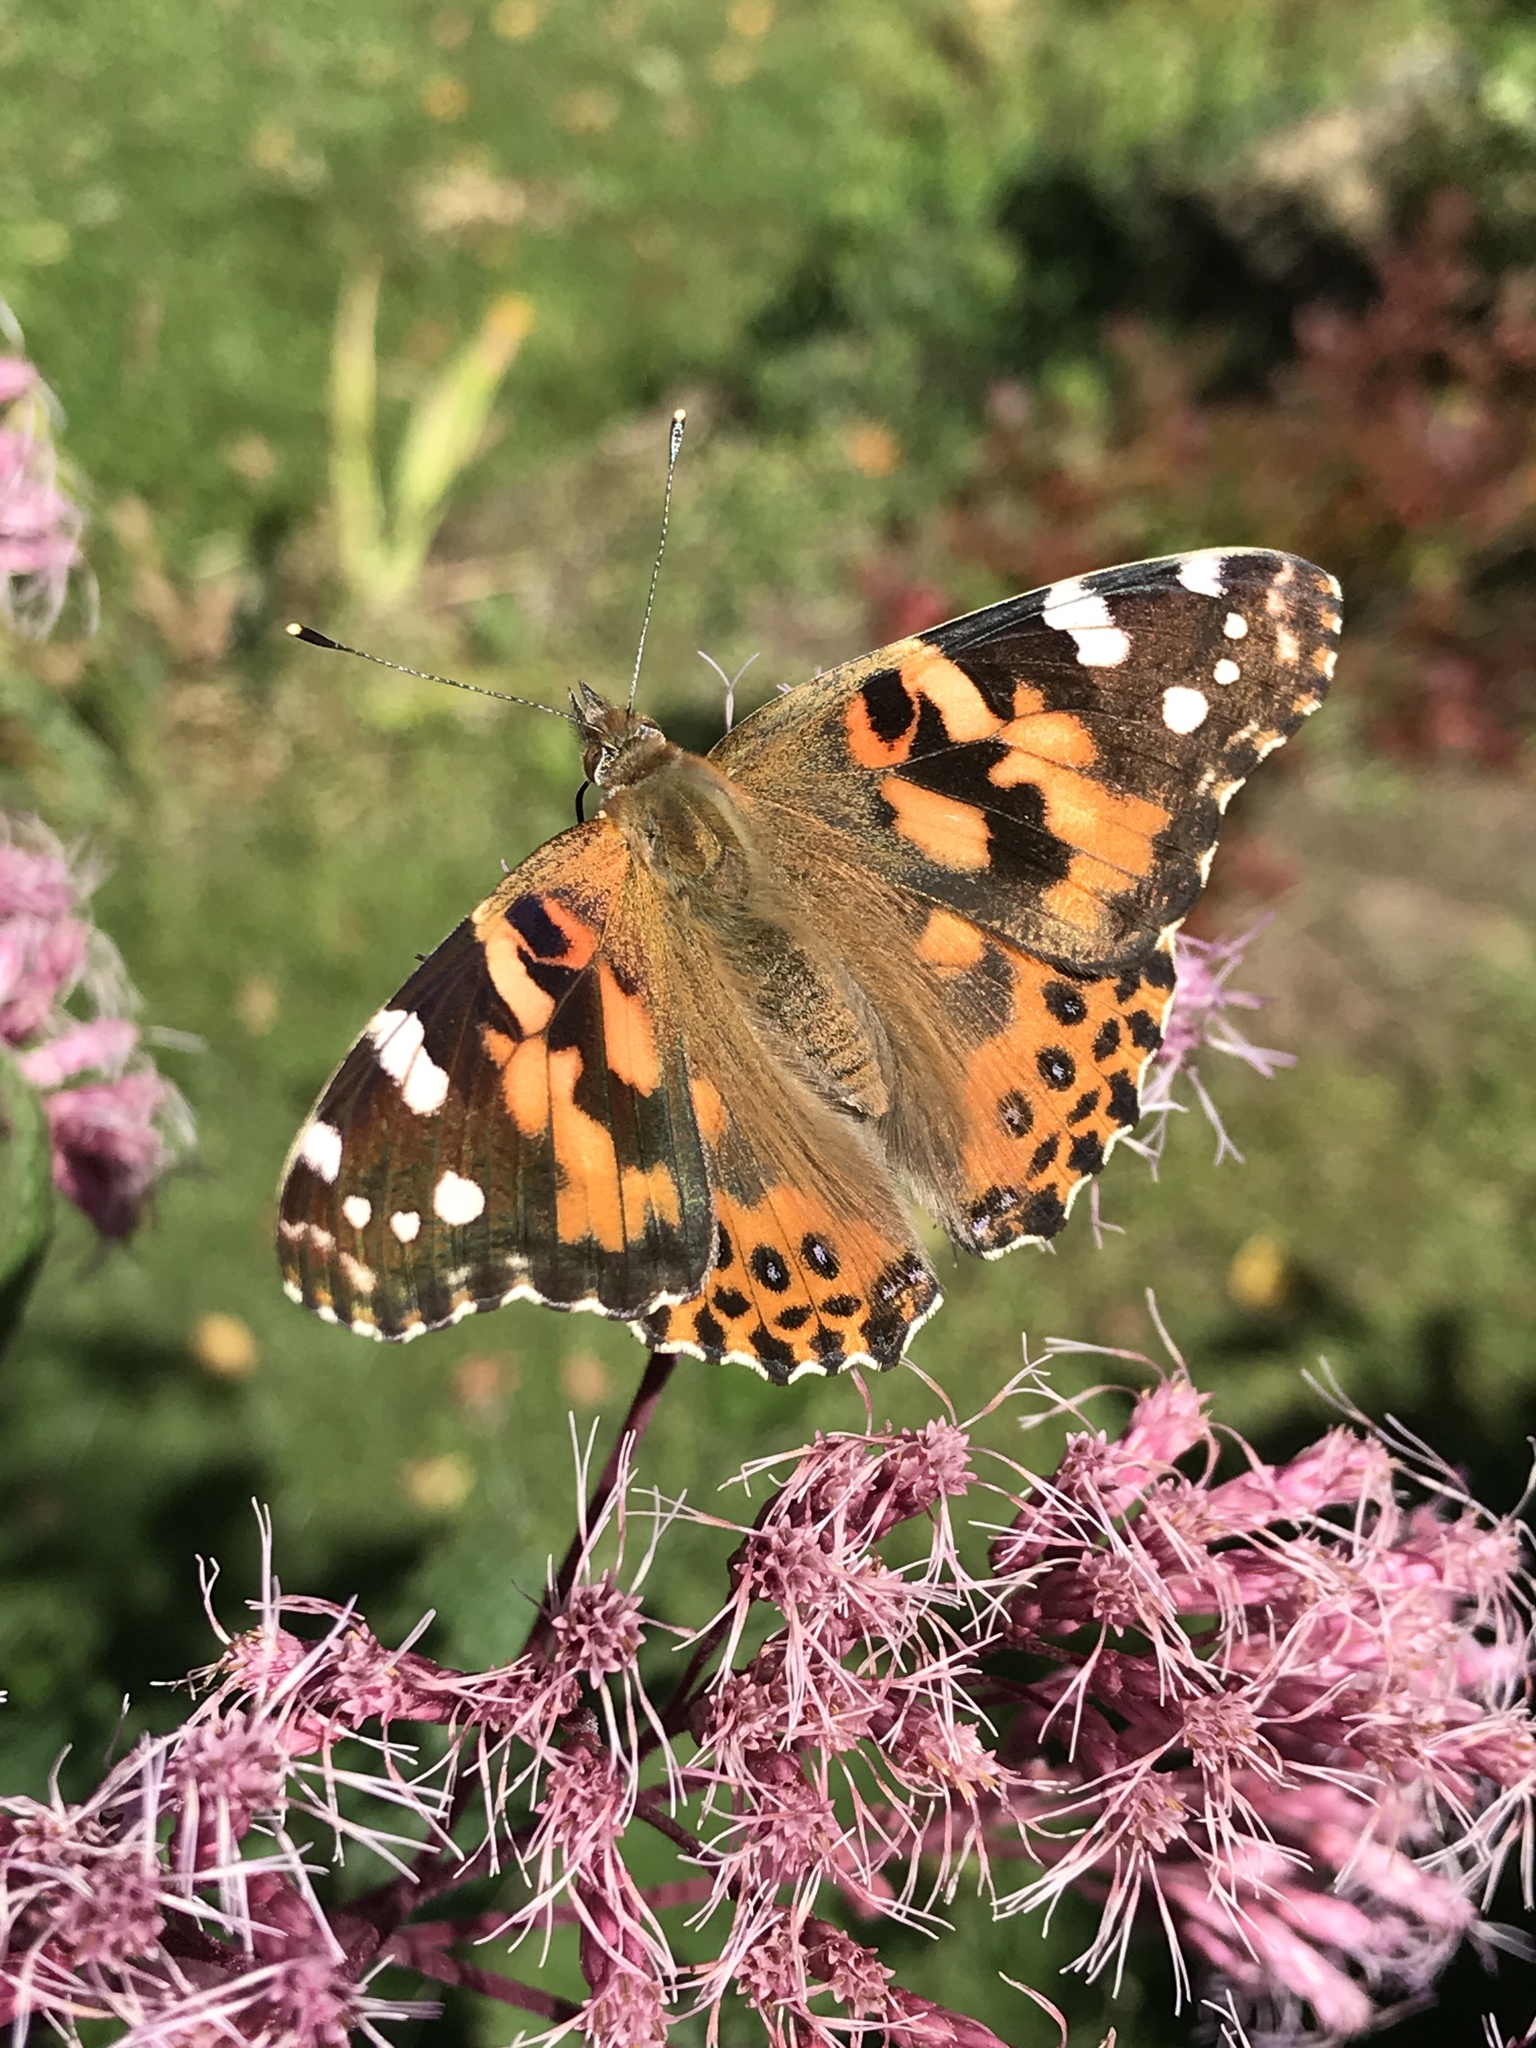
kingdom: Animalia
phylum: Arthropoda
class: Insecta
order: Lepidoptera
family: Nymphalidae
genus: Vanessa
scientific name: Vanessa cardui
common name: Painted lady
